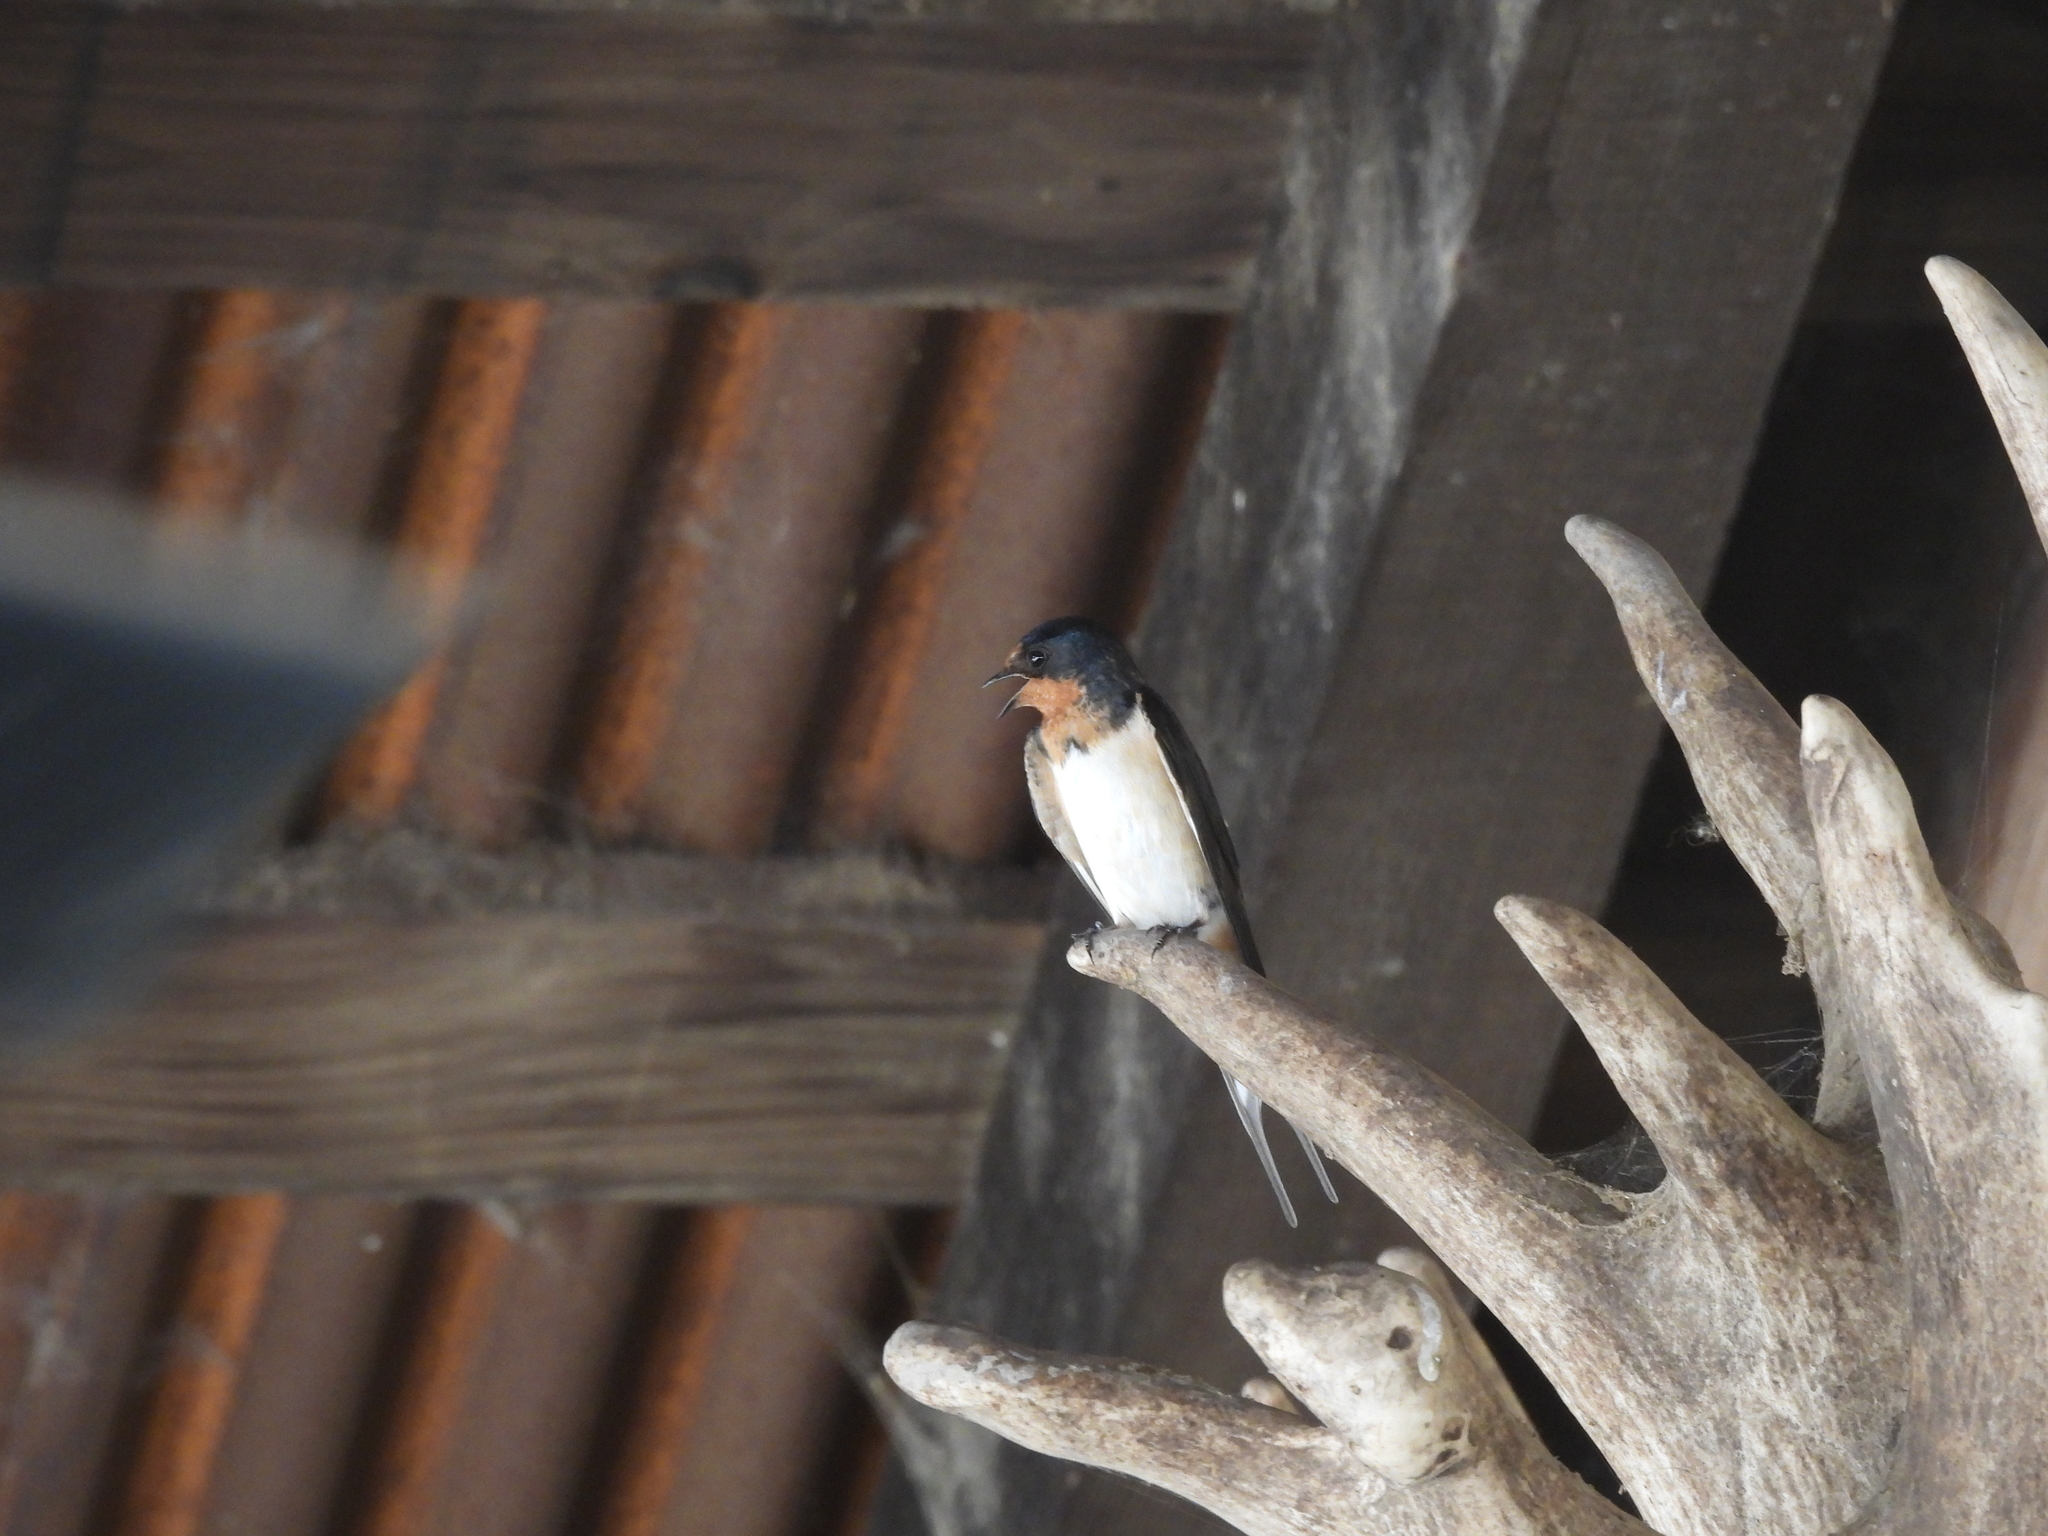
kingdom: Animalia
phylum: Chordata
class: Aves
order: Passeriformes
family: Hirundinidae
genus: Hirundo
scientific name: Hirundo rustica
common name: Barn swallow
